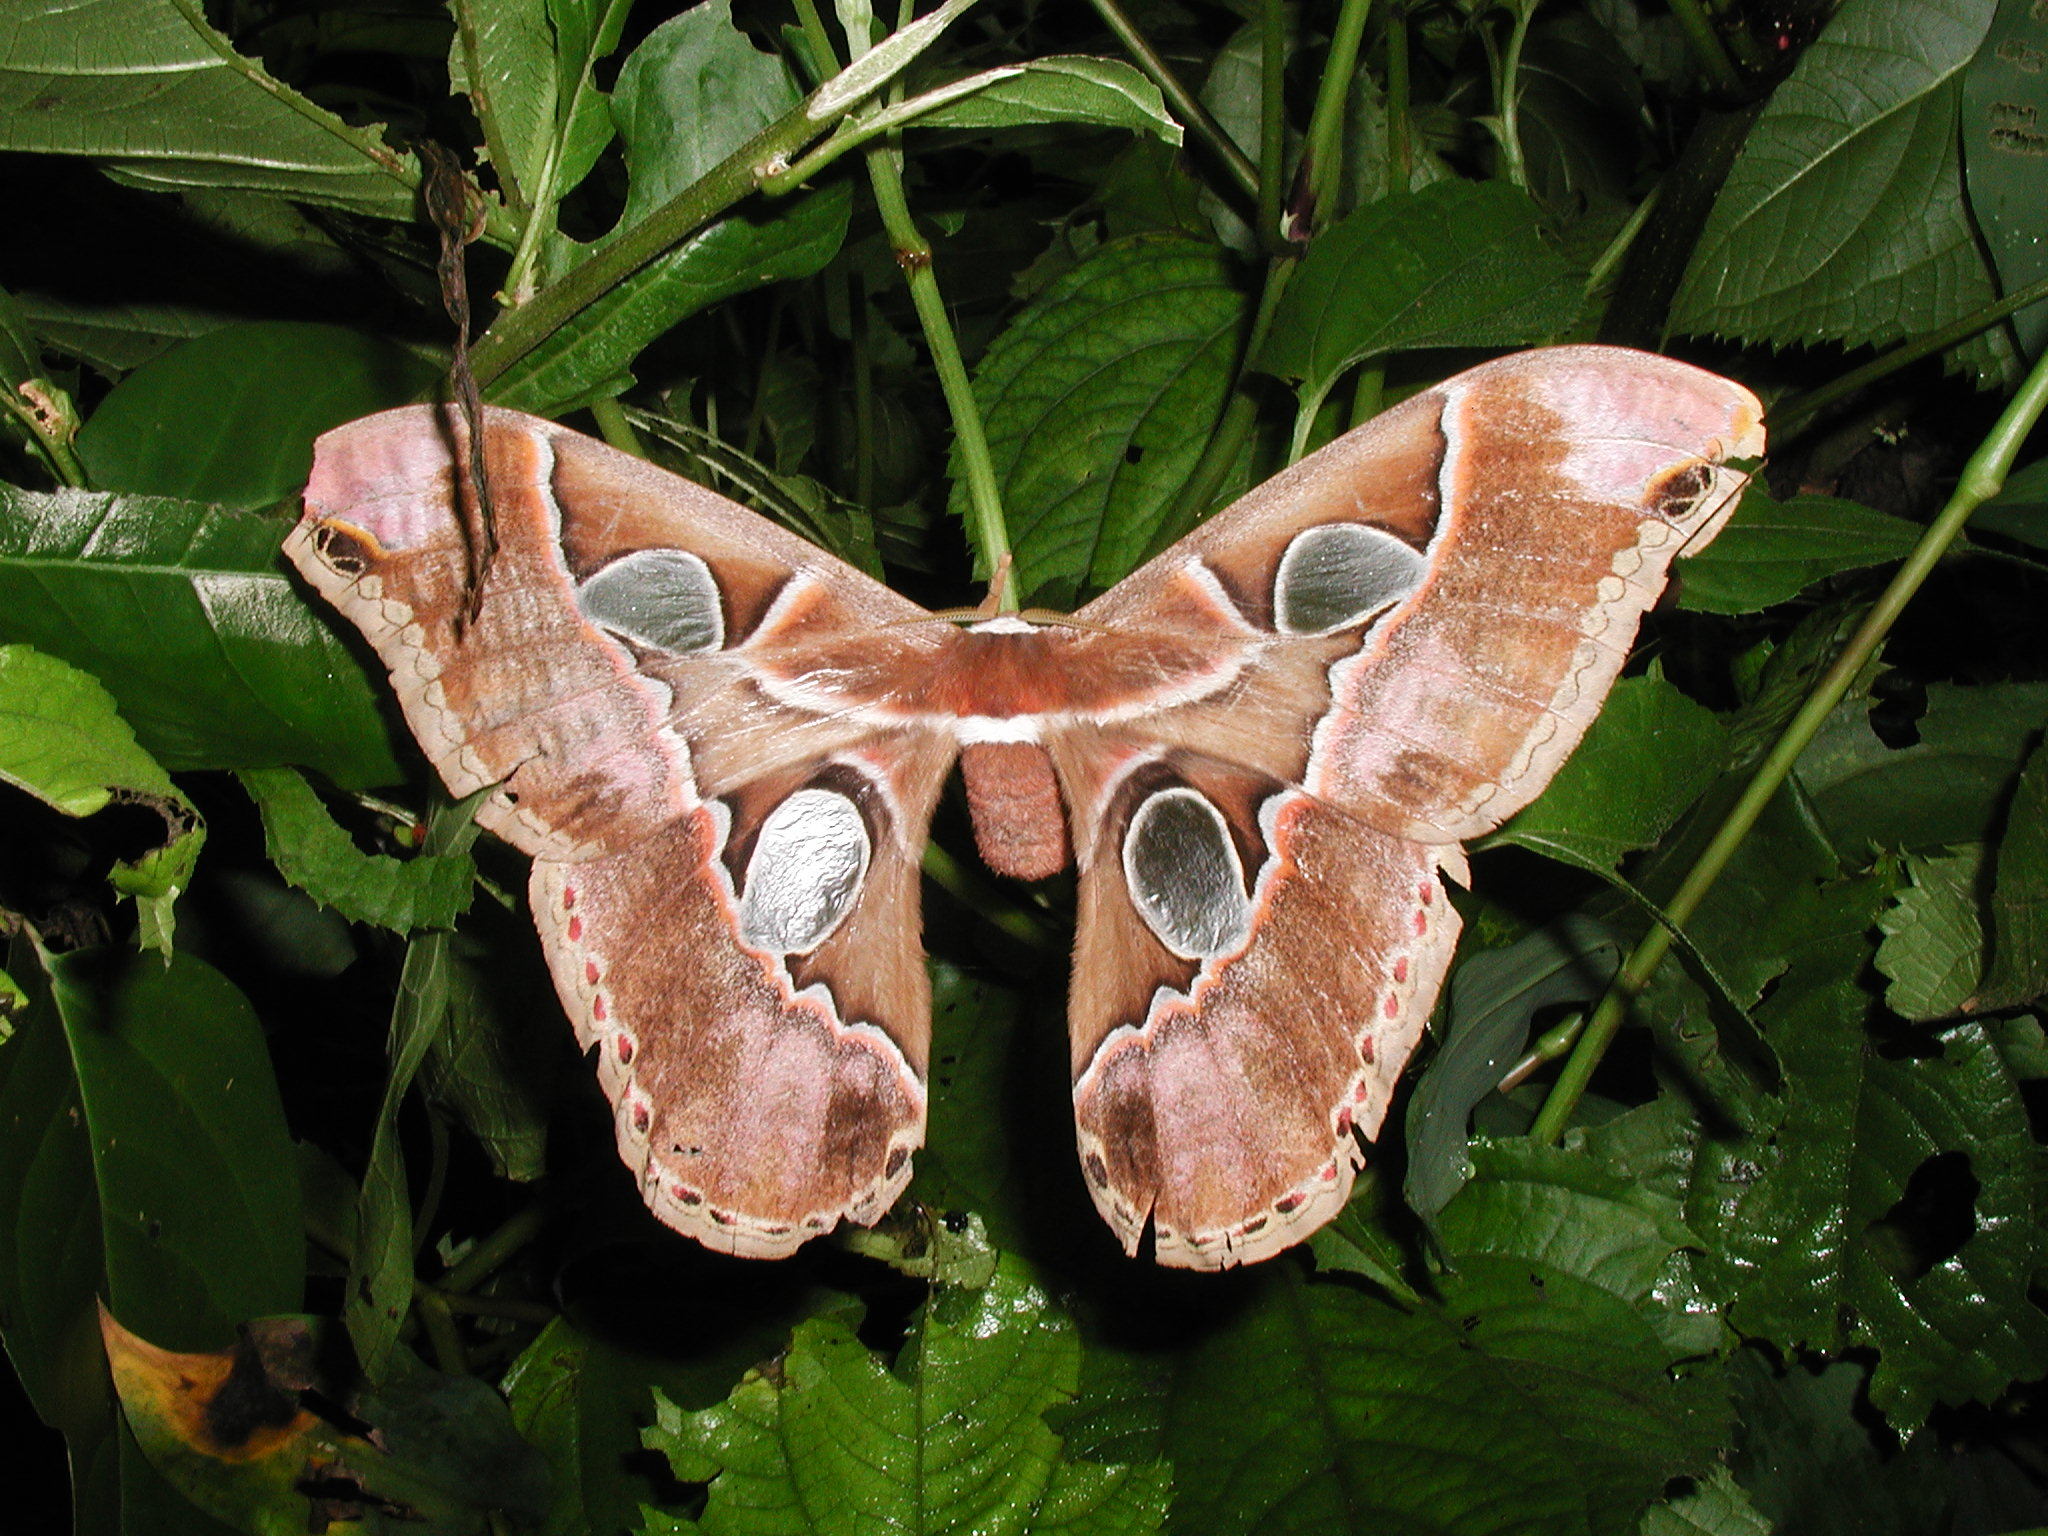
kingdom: Animalia
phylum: Arthropoda
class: Insecta
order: Lepidoptera
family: Saturniidae
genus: Rothschildia
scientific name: Rothschildia lebeau
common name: Lebeau's rothschildia
